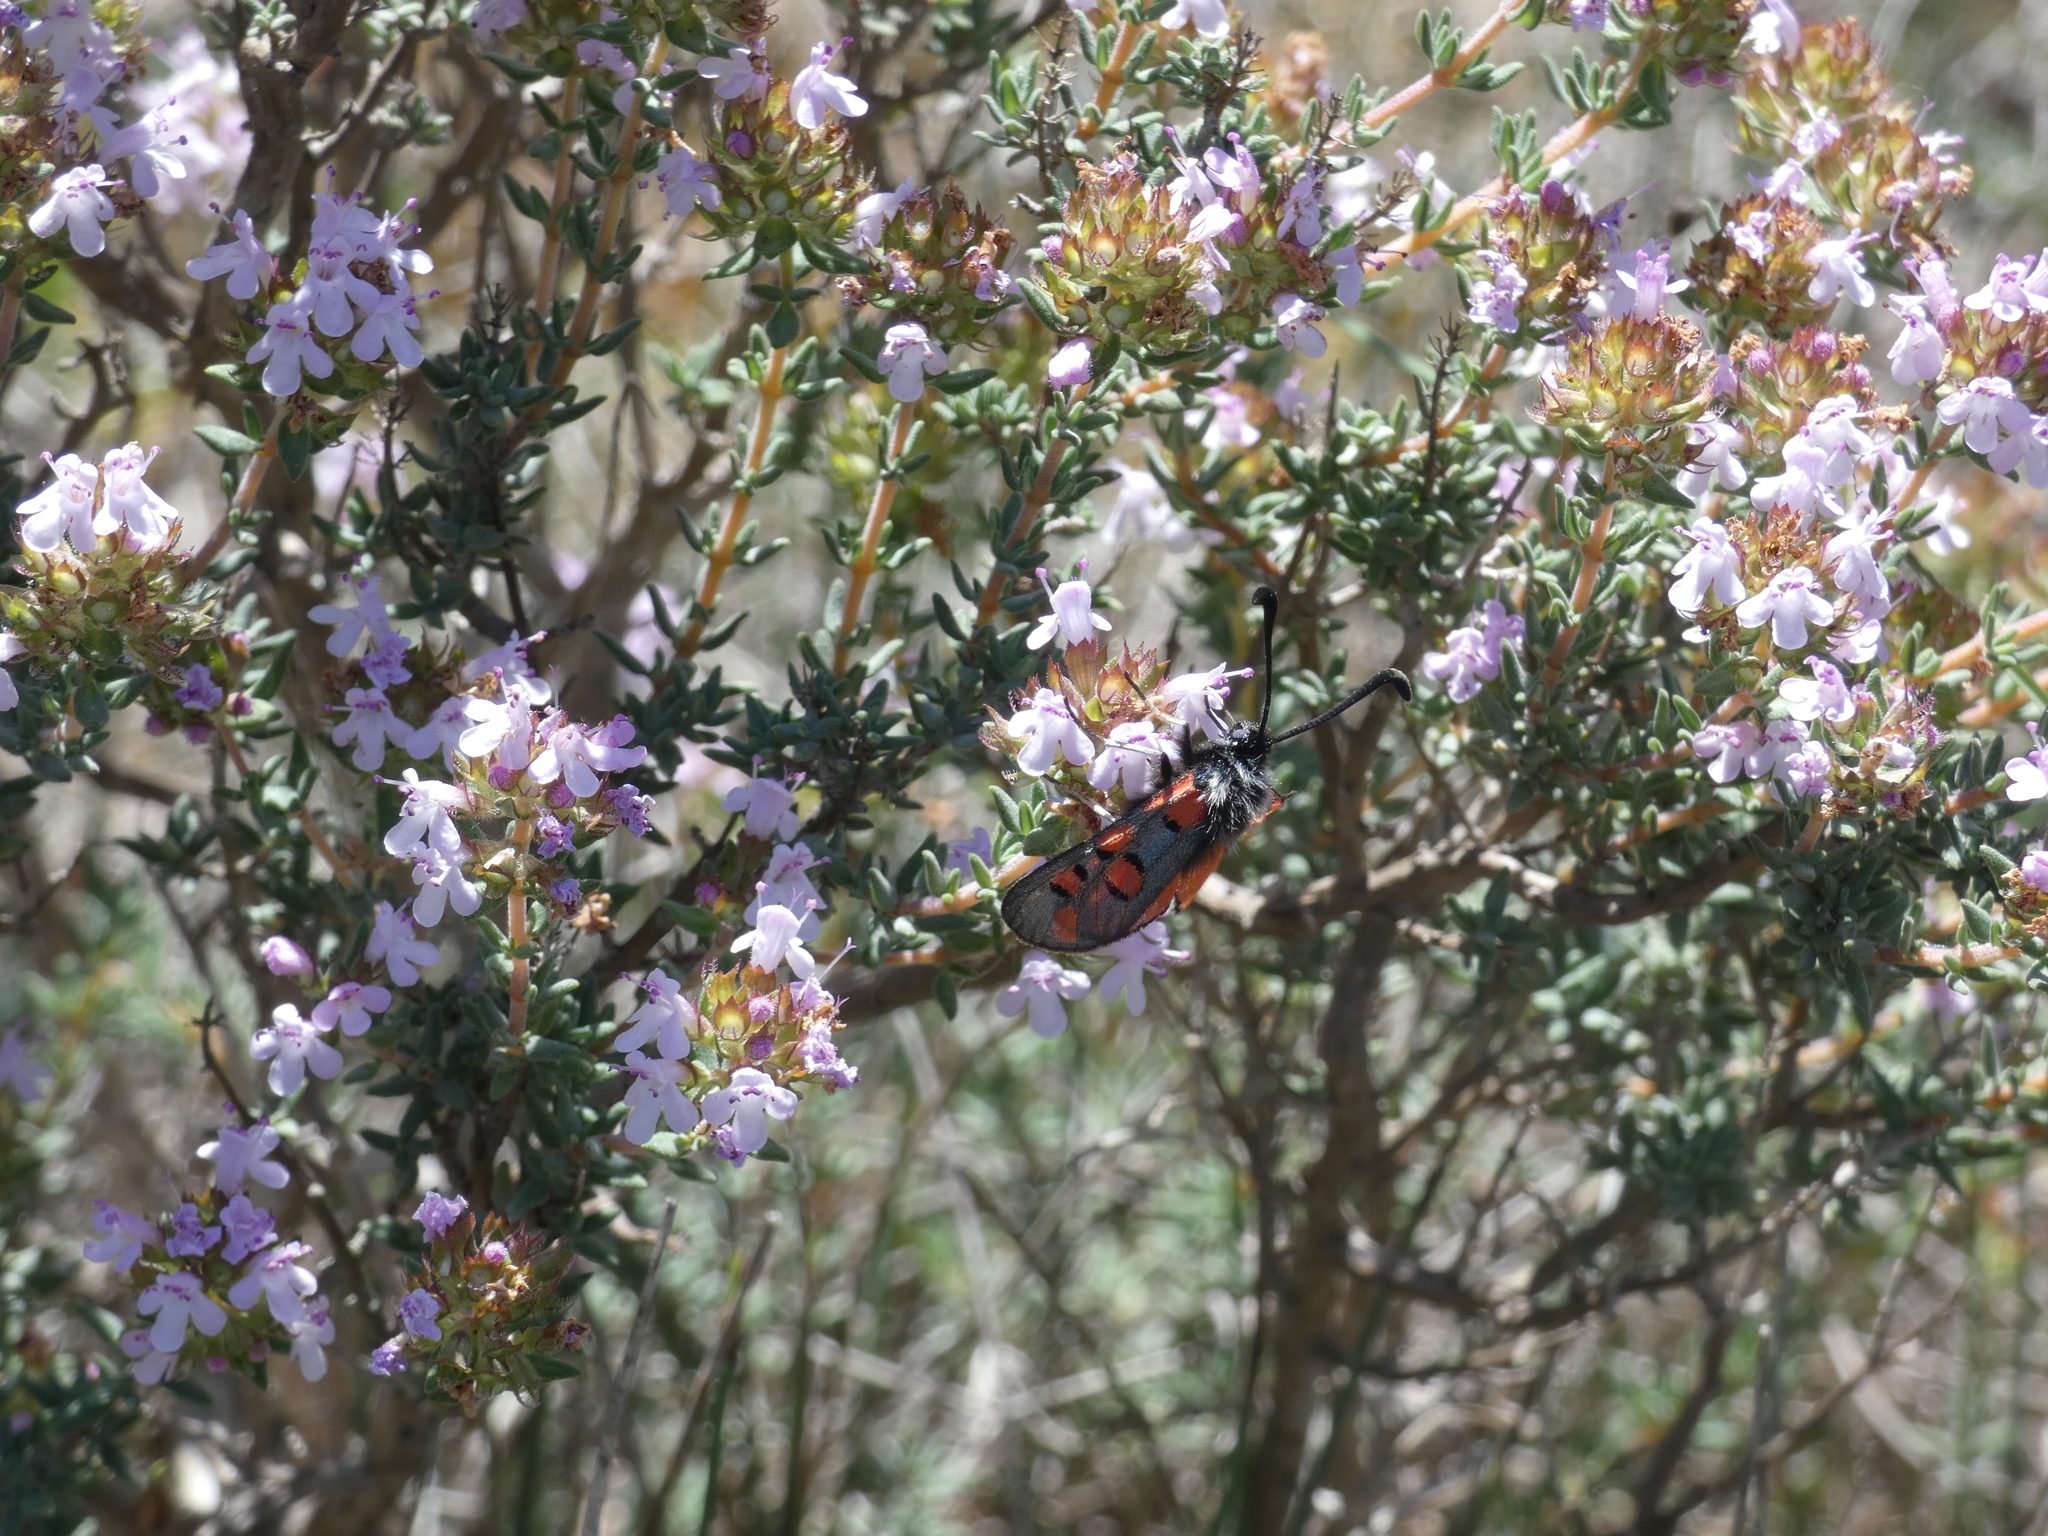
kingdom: Animalia
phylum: Arthropoda
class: Insecta
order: Lepidoptera
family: Zygaenidae
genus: Zygaena
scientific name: Zygaena rhadamanthus
